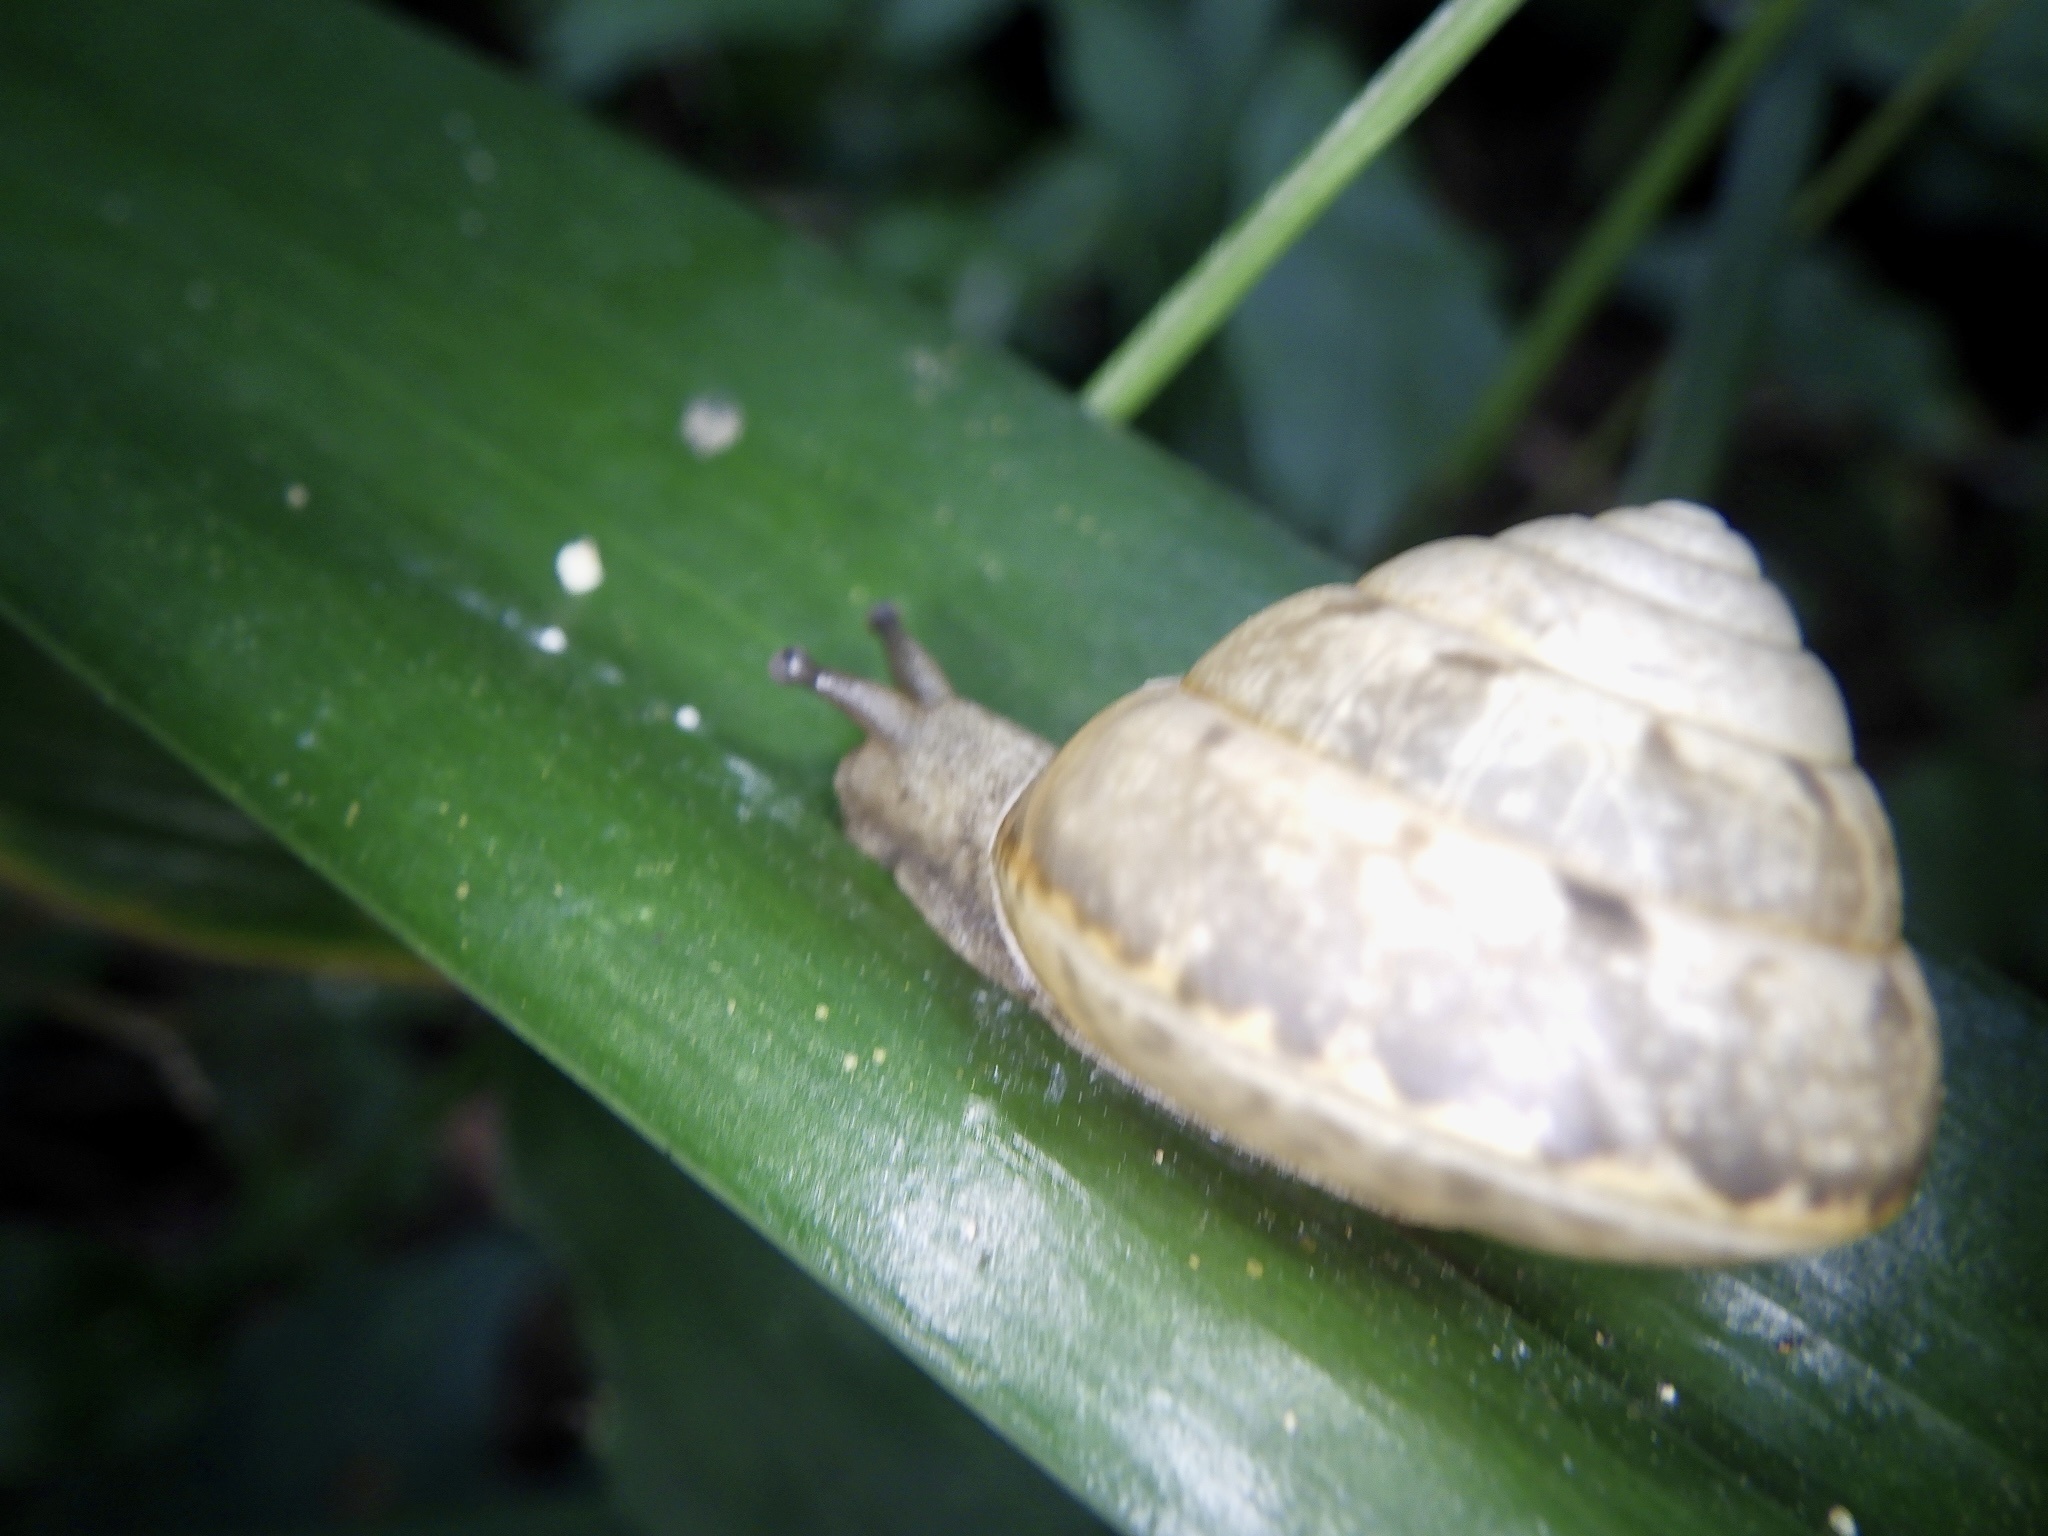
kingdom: Animalia
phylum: Mollusca
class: Gastropoda
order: Stylommatophora
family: Camaenidae
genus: Satsuma
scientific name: Satsuma japonica
